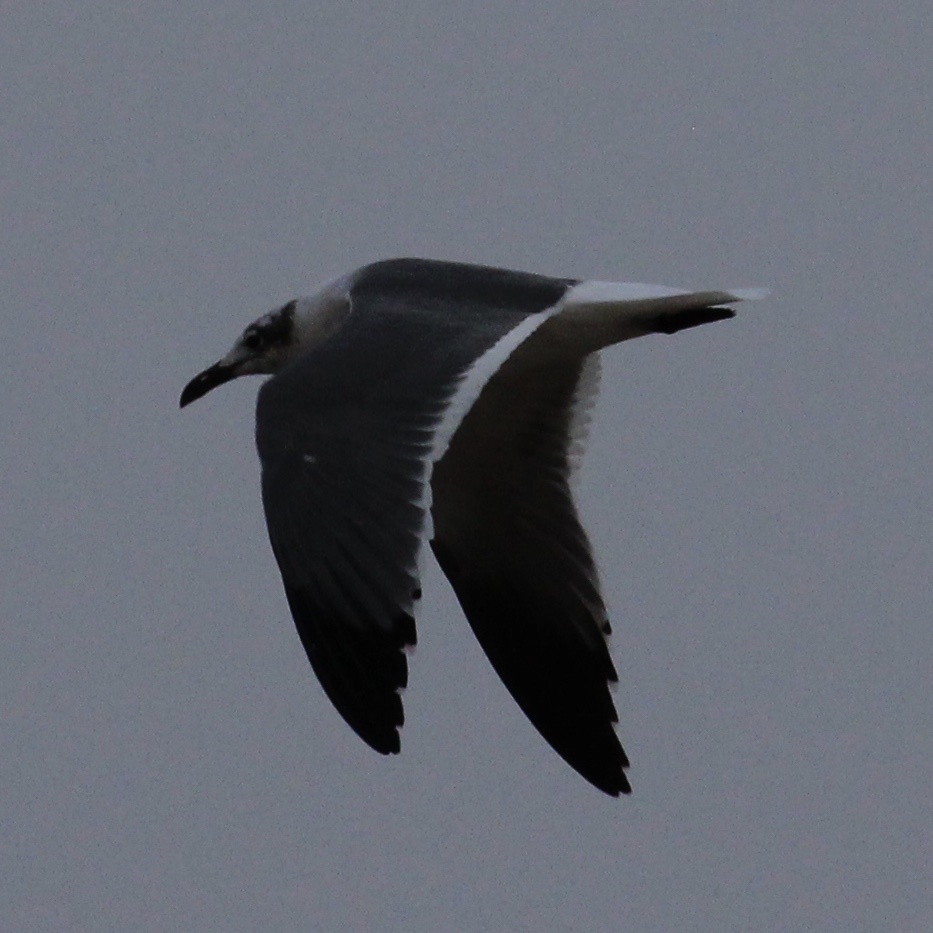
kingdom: Animalia
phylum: Chordata
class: Aves
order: Charadriiformes
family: Laridae
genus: Leucophaeus
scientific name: Leucophaeus atricilla
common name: Laughing gull
